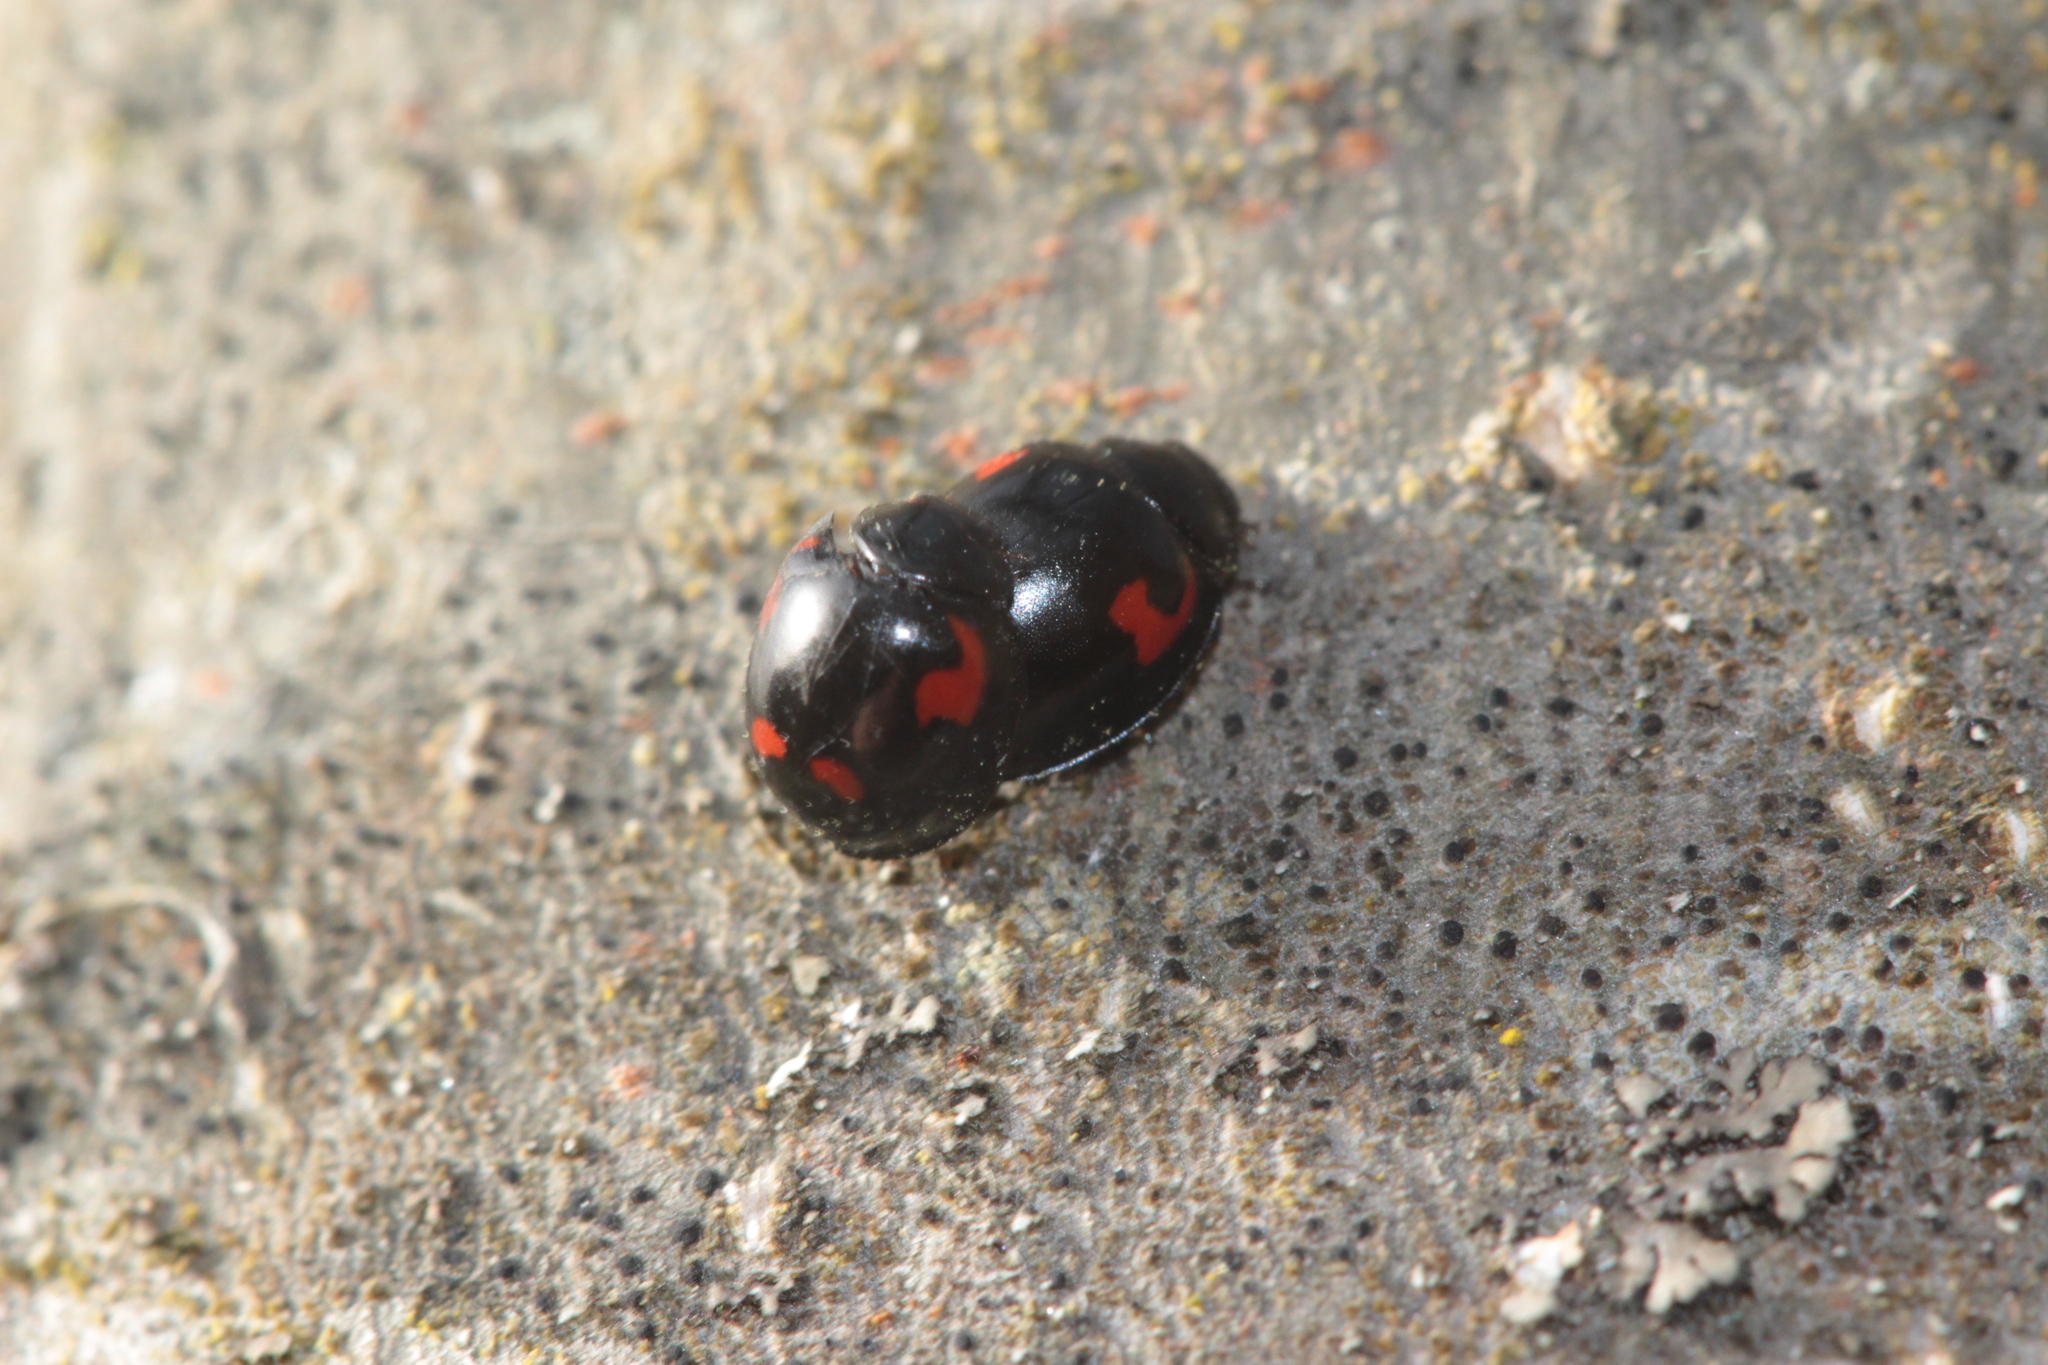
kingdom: Animalia
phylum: Arthropoda
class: Insecta
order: Coleoptera
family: Coccinellidae
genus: Brumus
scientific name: Brumus quadripustulatus
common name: Ladybird beetle
